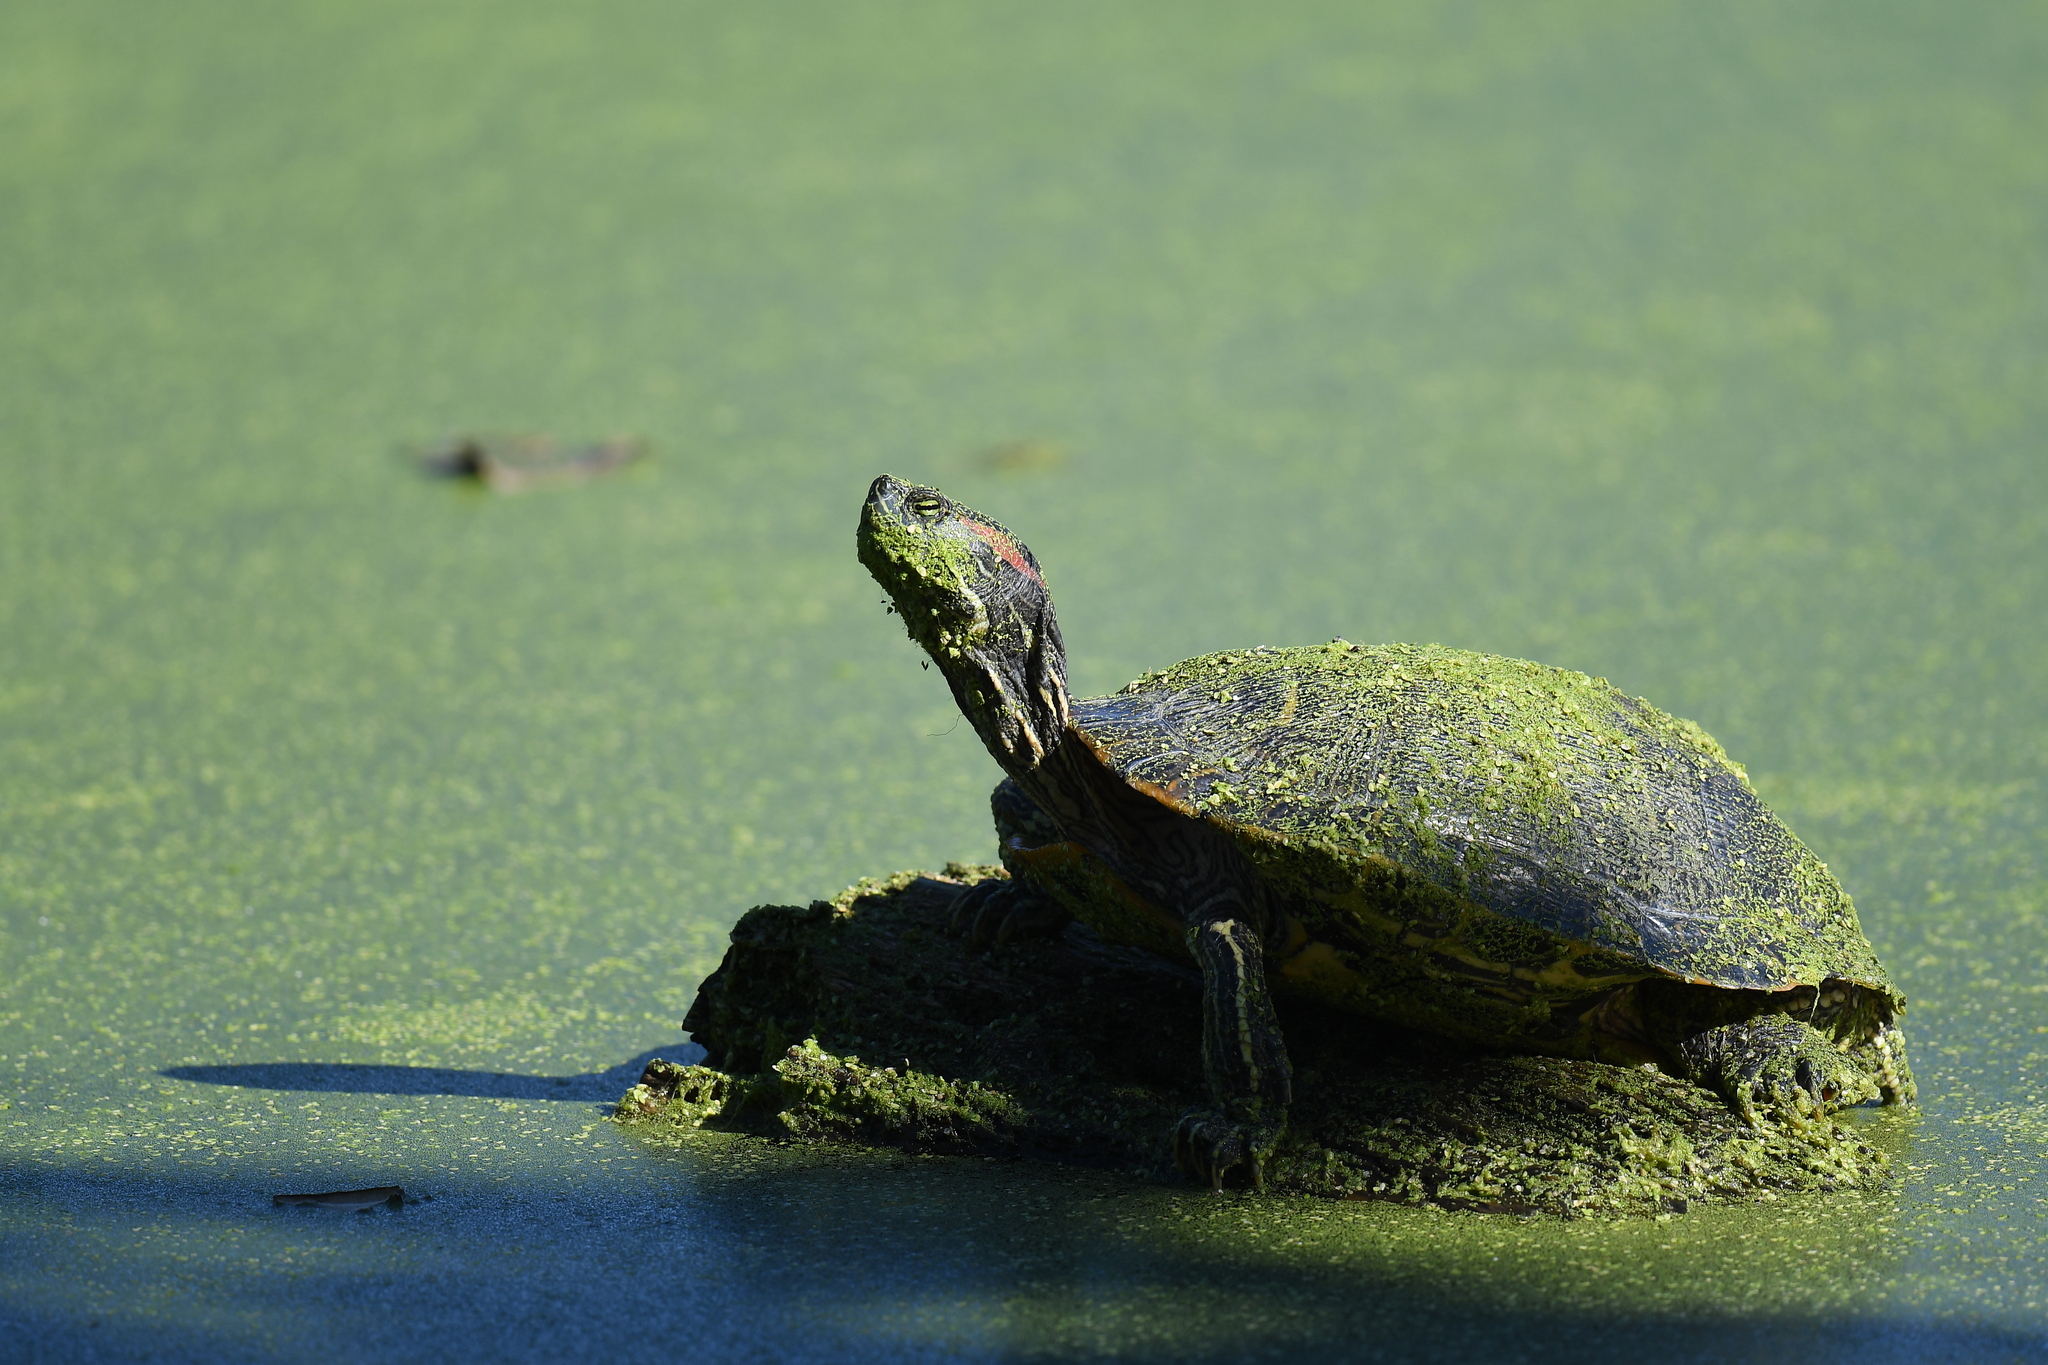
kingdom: Animalia
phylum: Chordata
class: Testudines
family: Emydidae
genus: Trachemys
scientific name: Trachemys scripta
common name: Slider
